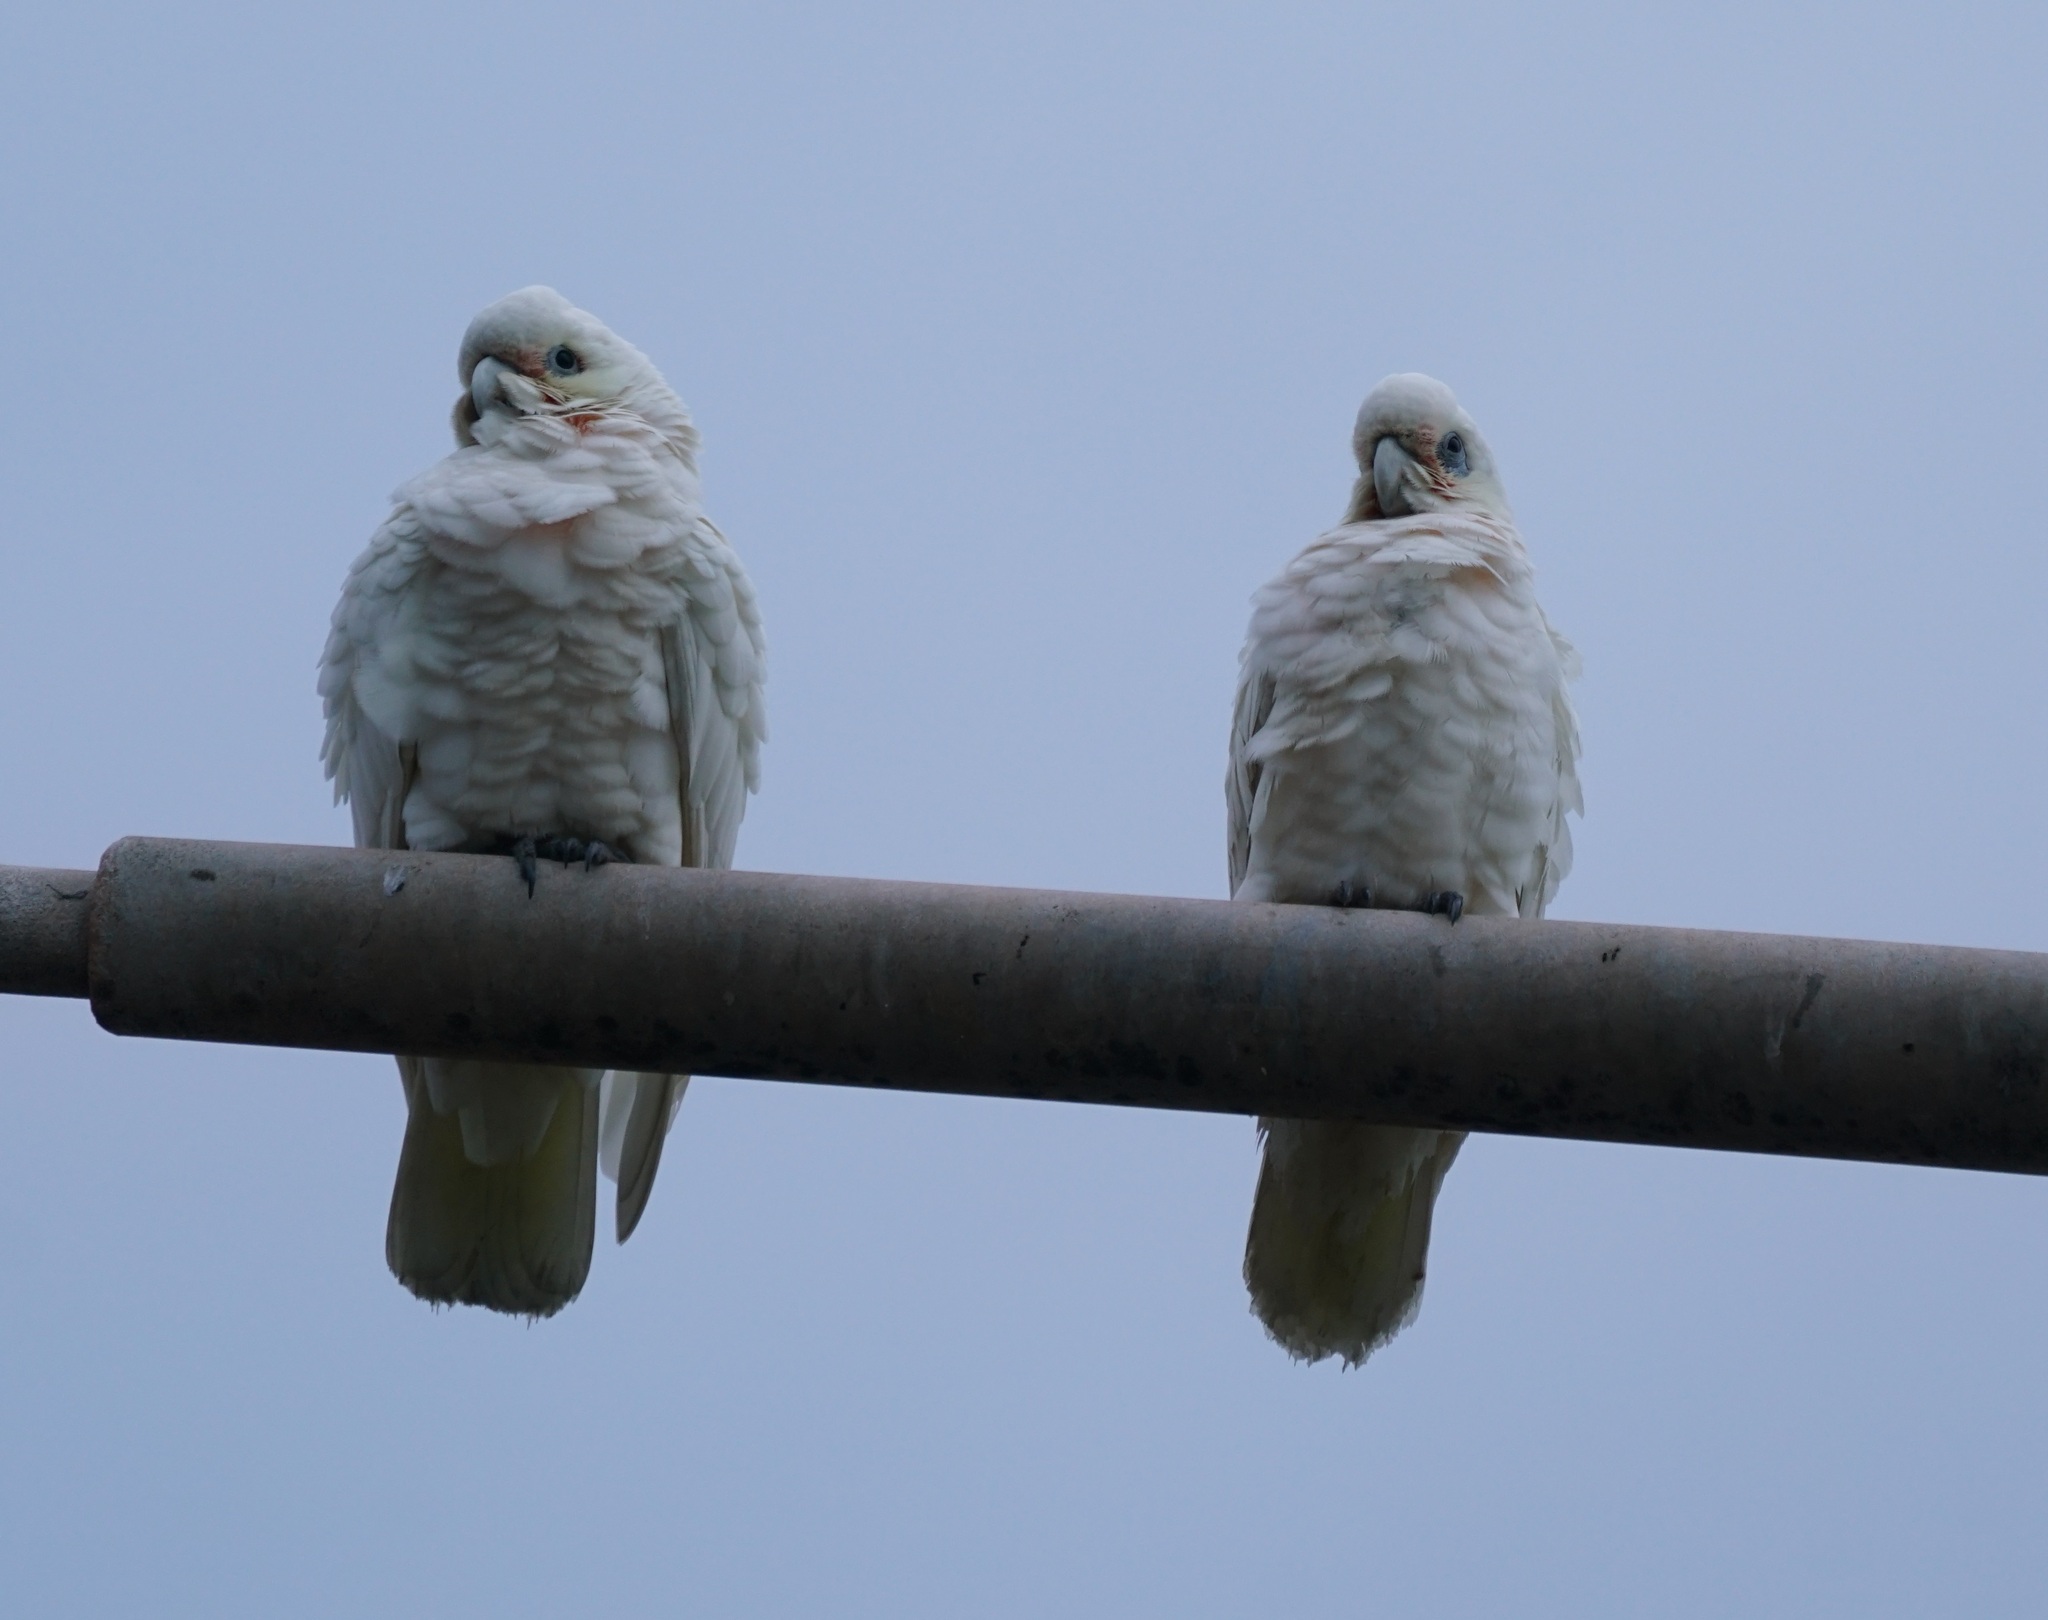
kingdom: Animalia
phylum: Chordata
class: Aves
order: Psittaciformes
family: Psittacidae
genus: Cacatua
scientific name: Cacatua sanguinea
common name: Little corella
